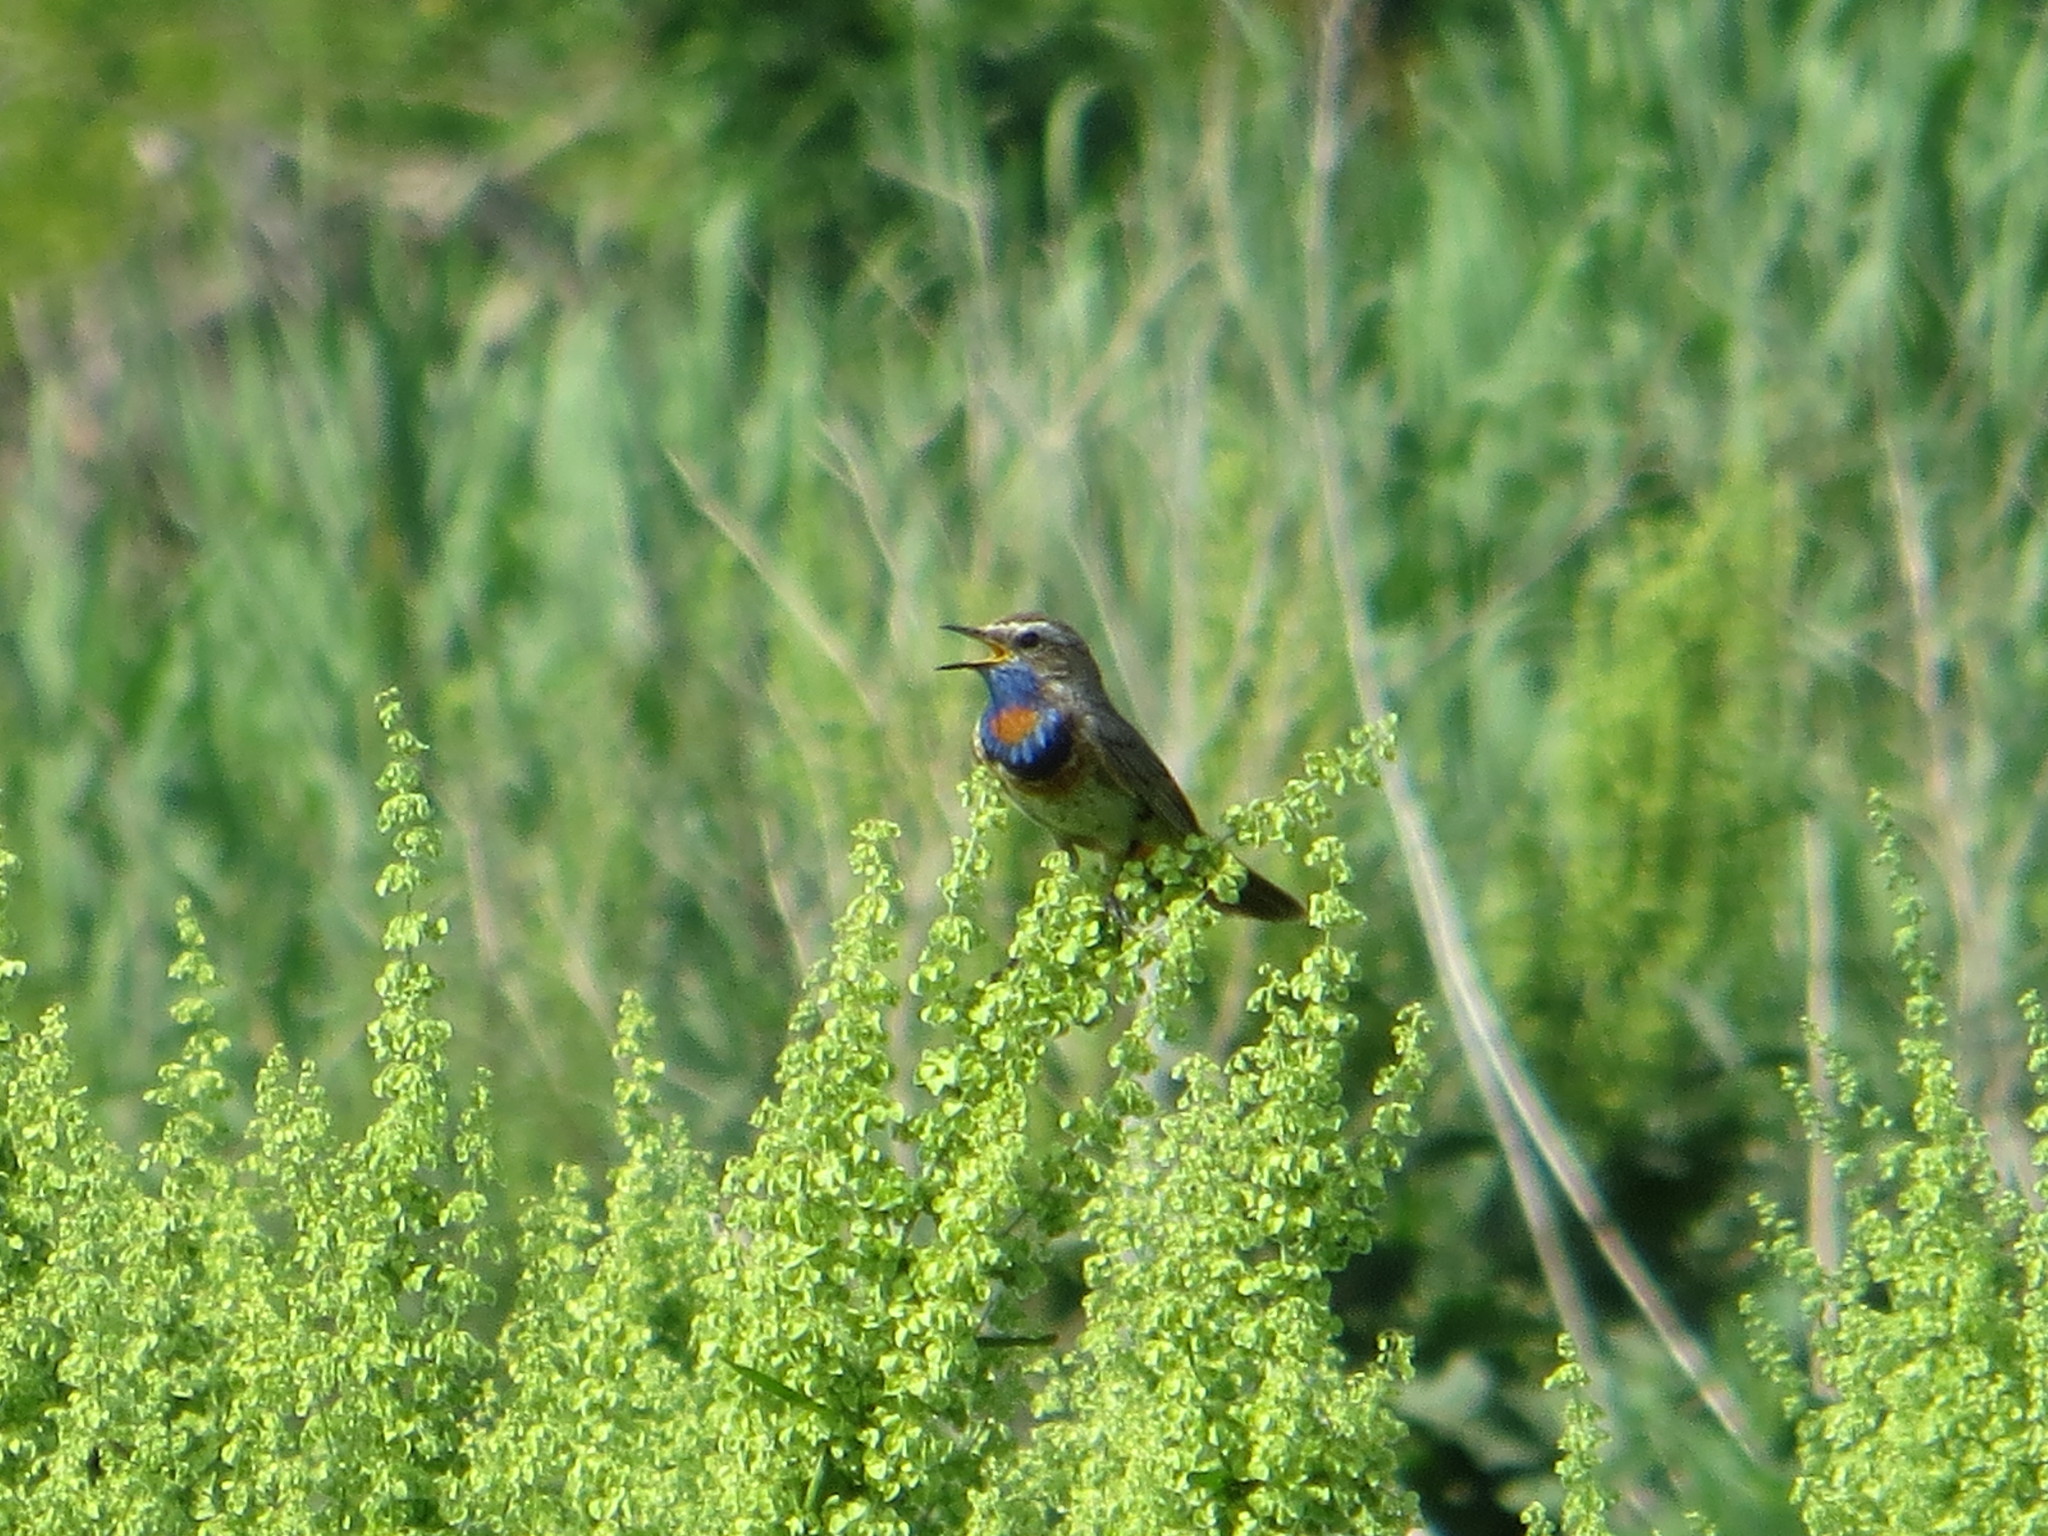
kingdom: Animalia
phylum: Chordata
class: Aves
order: Passeriformes
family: Muscicapidae
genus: Luscinia
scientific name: Luscinia svecica
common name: Bluethroat
